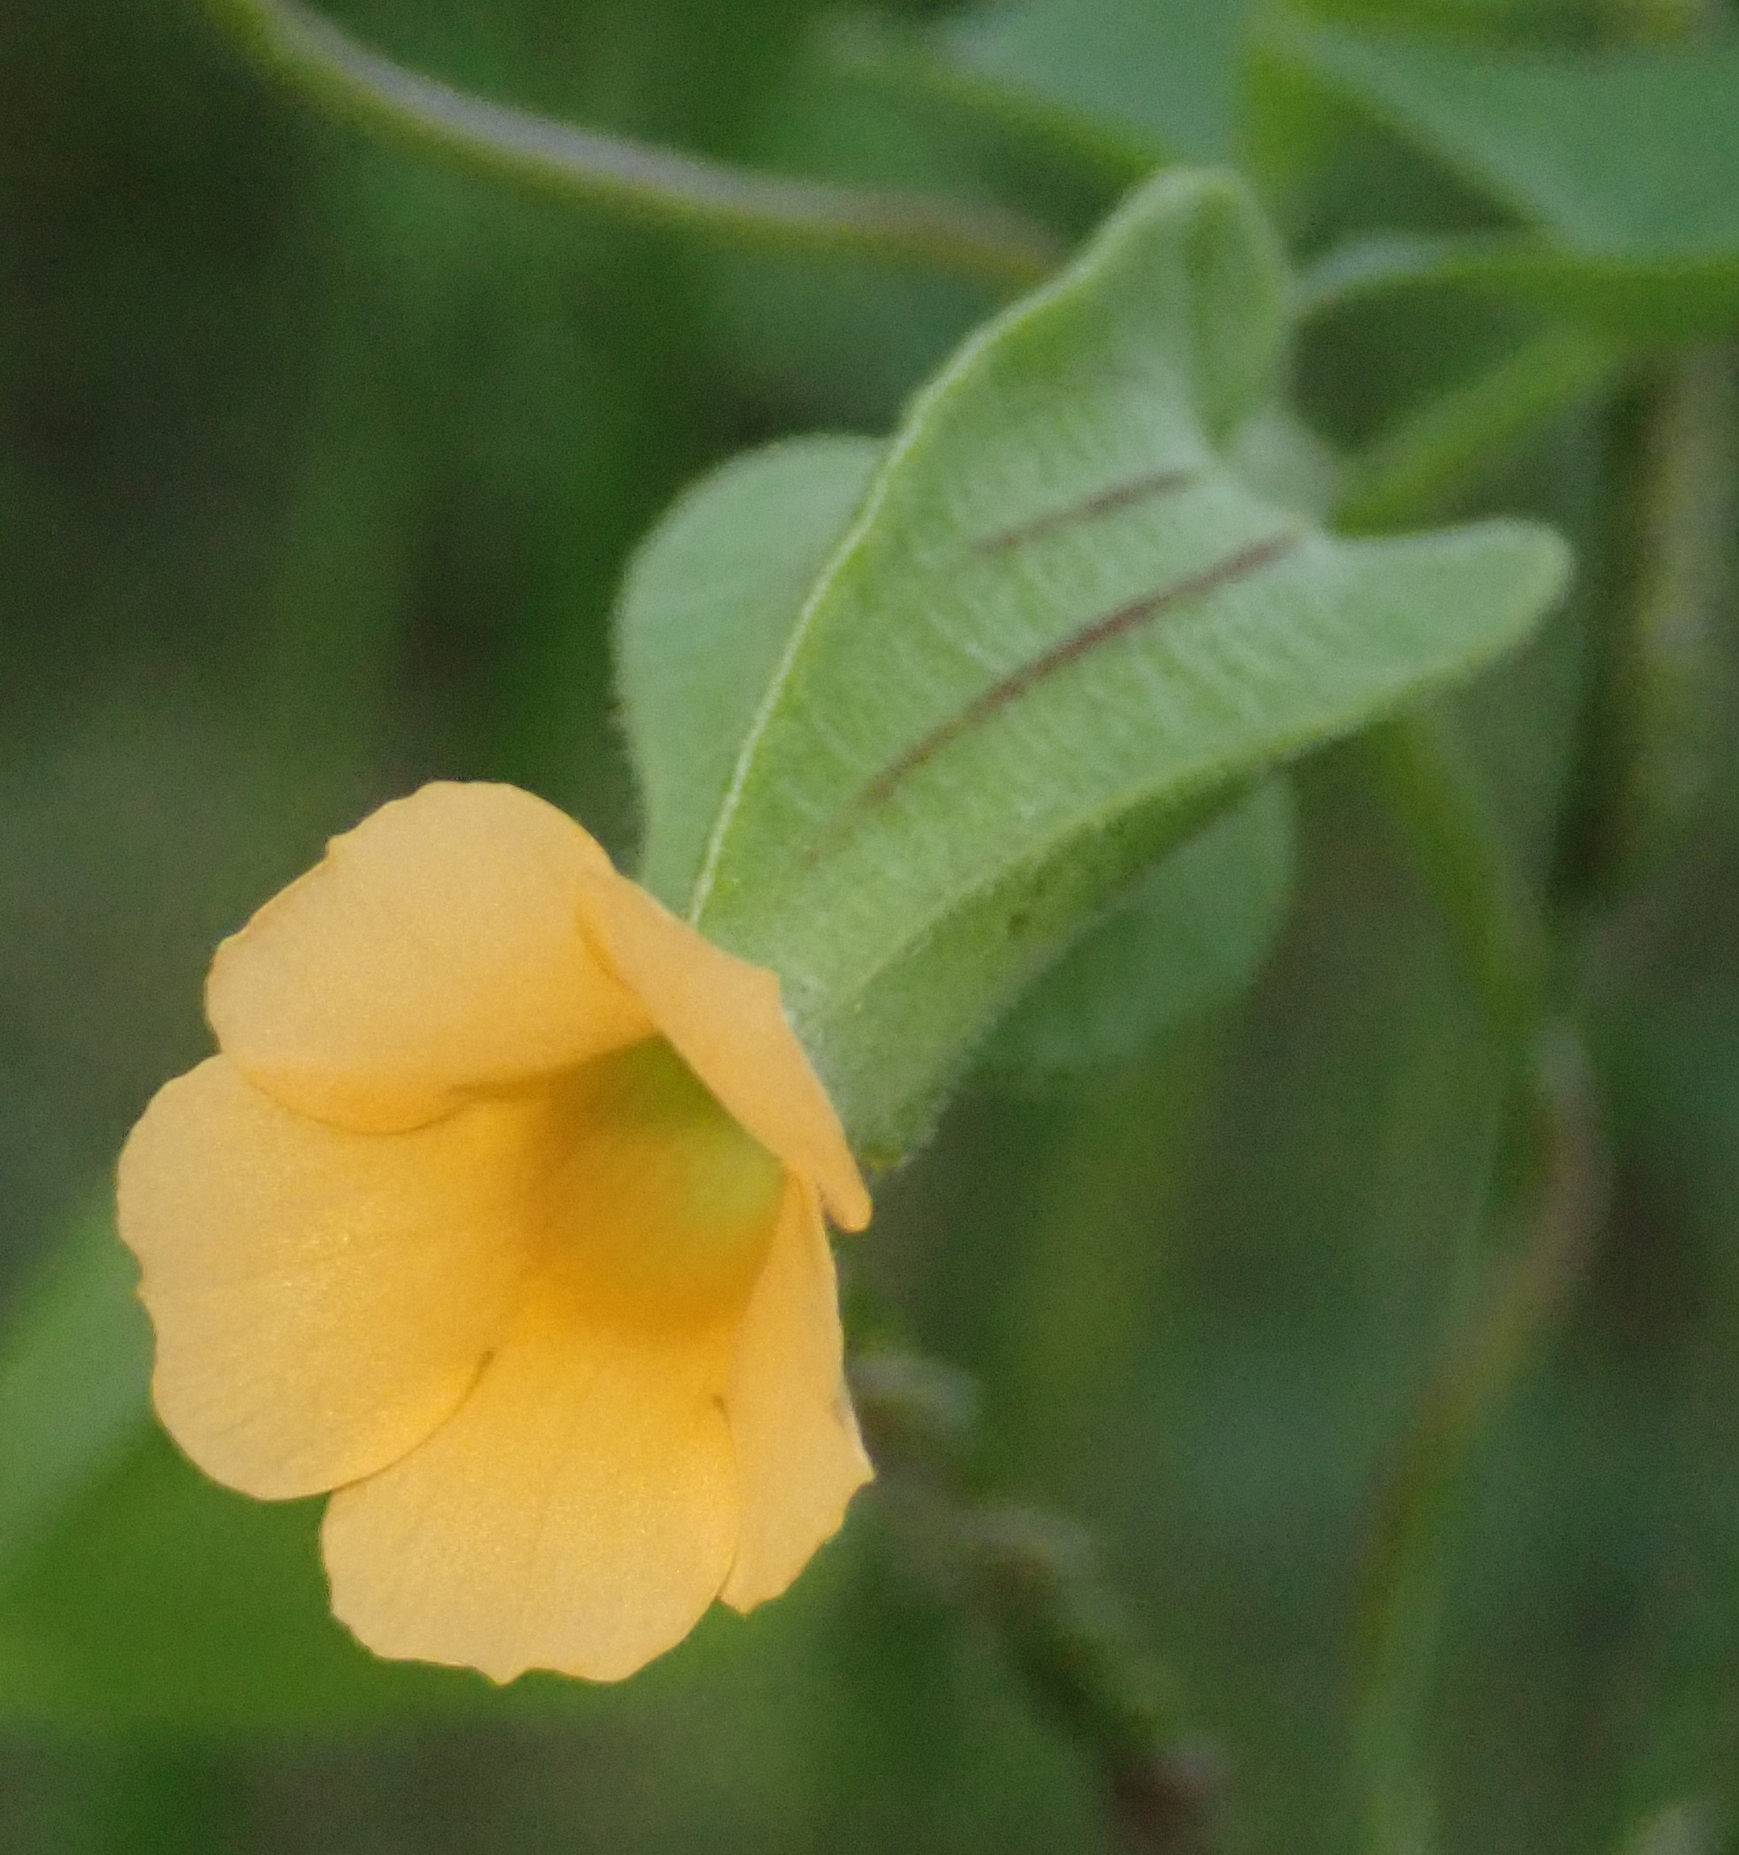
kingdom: Plantae
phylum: Tracheophyta
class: Magnoliopsida
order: Lamiales
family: Acanthaceae
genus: Thunbergia
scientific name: Thunbergia reticulata
